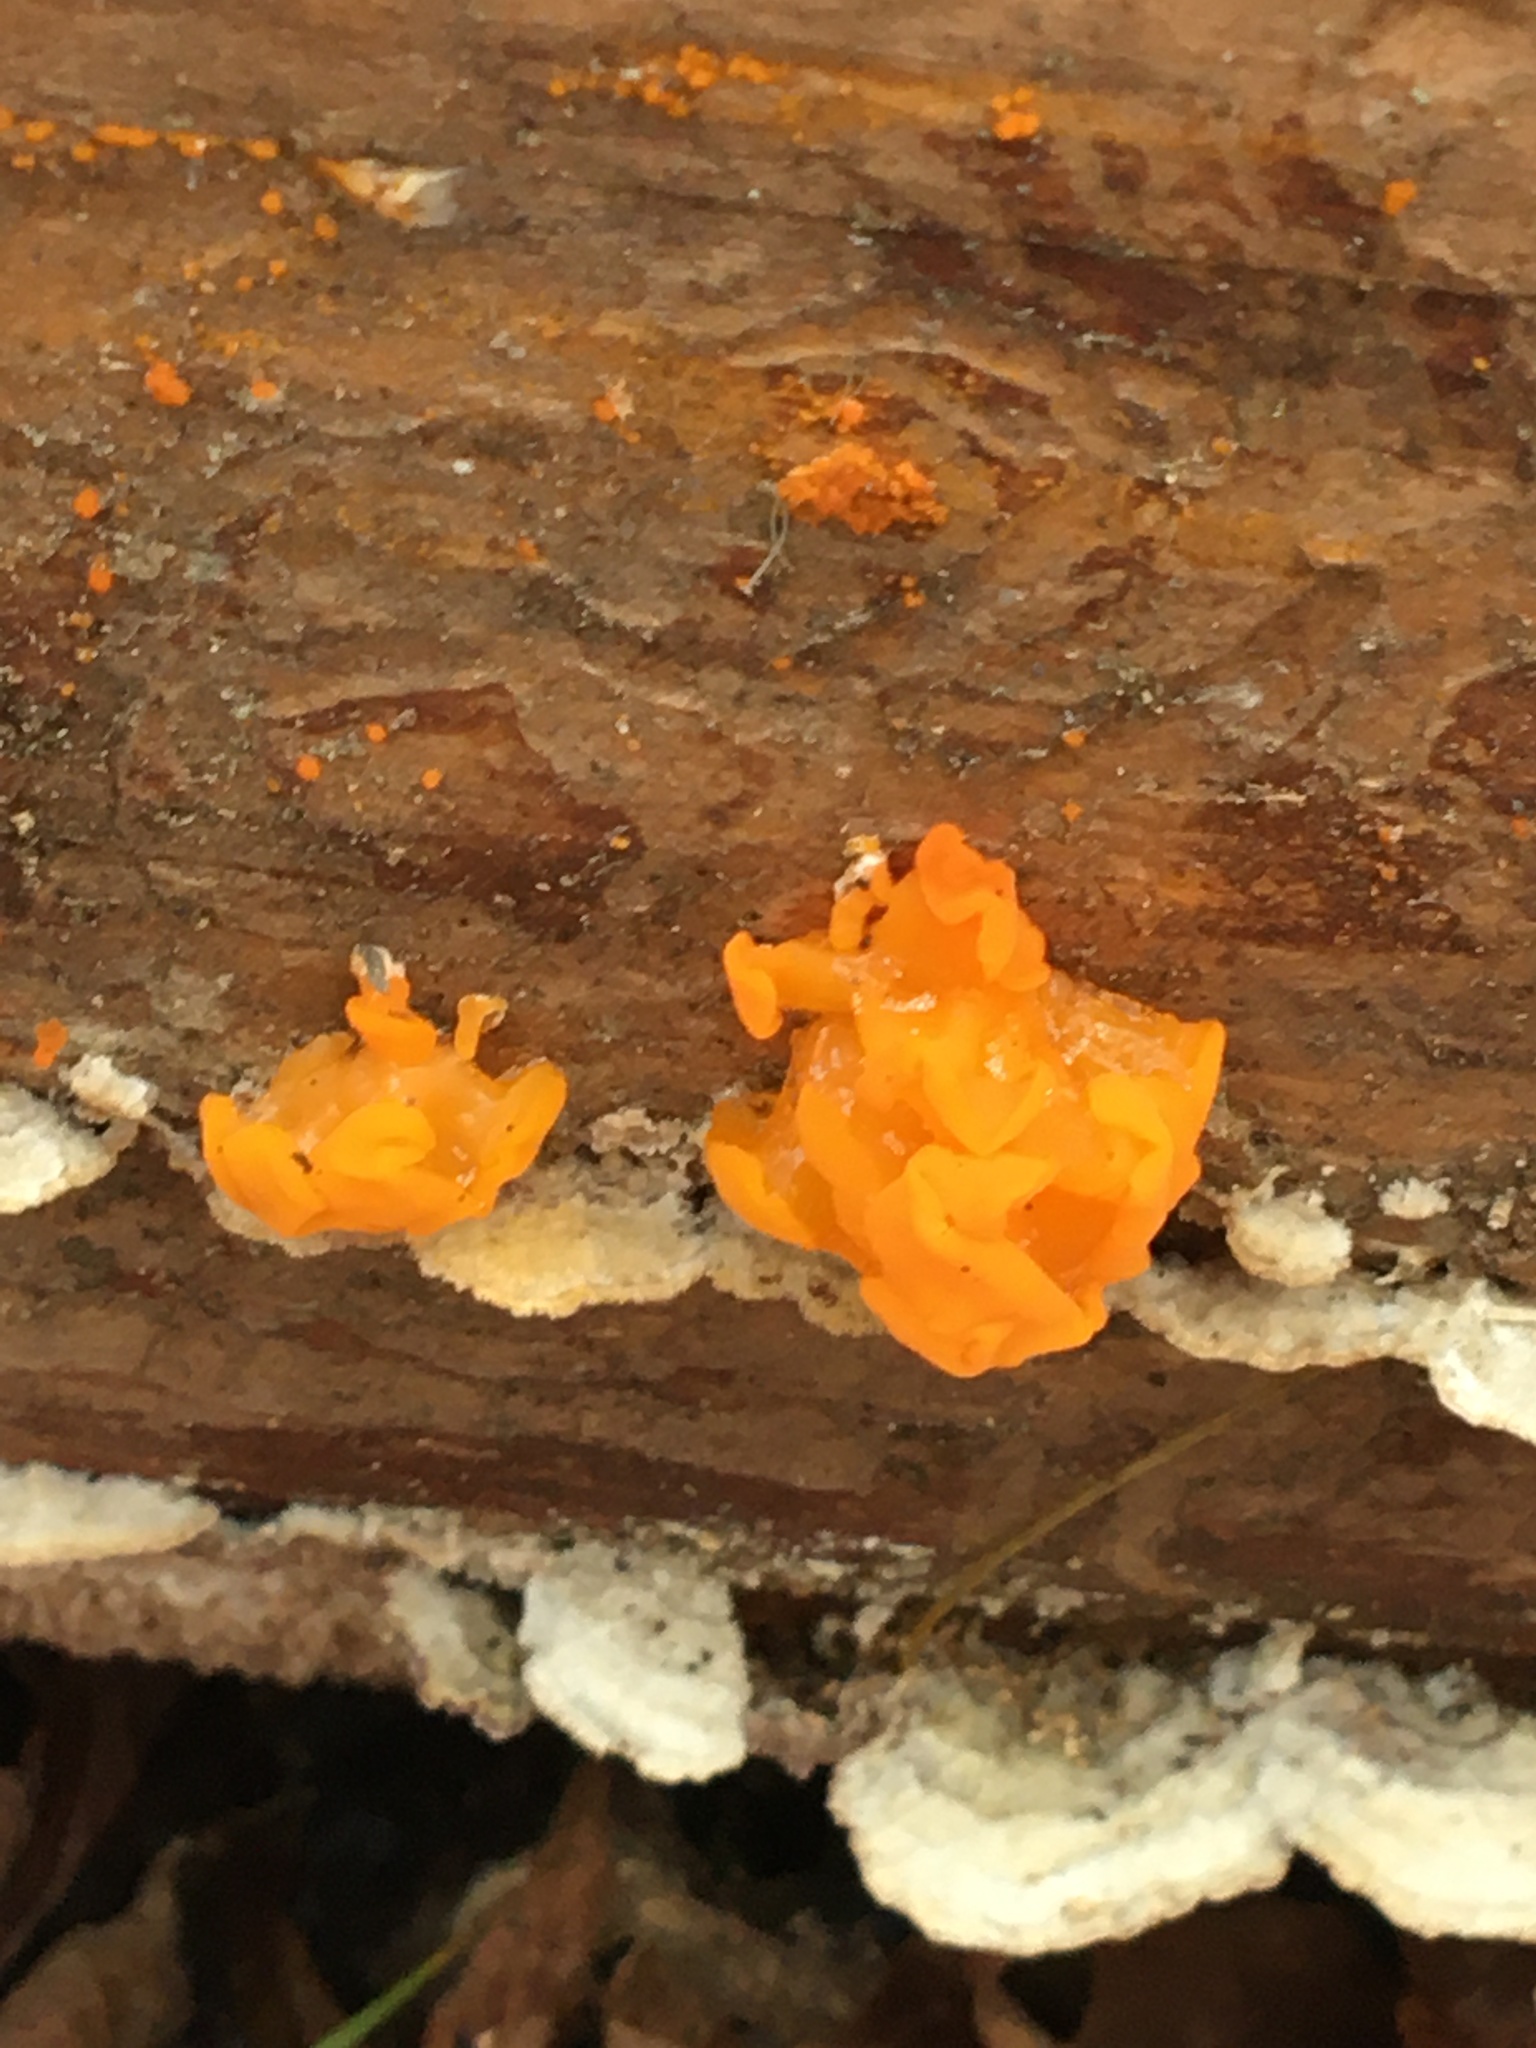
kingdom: Fungi
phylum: Basidiomycota
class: Dacrymycetes
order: Dacrymycetales
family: Dacrymycetaceae
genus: Dacrymyces
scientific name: Dacrymyces chrysospermus
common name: Orange jelly spot
